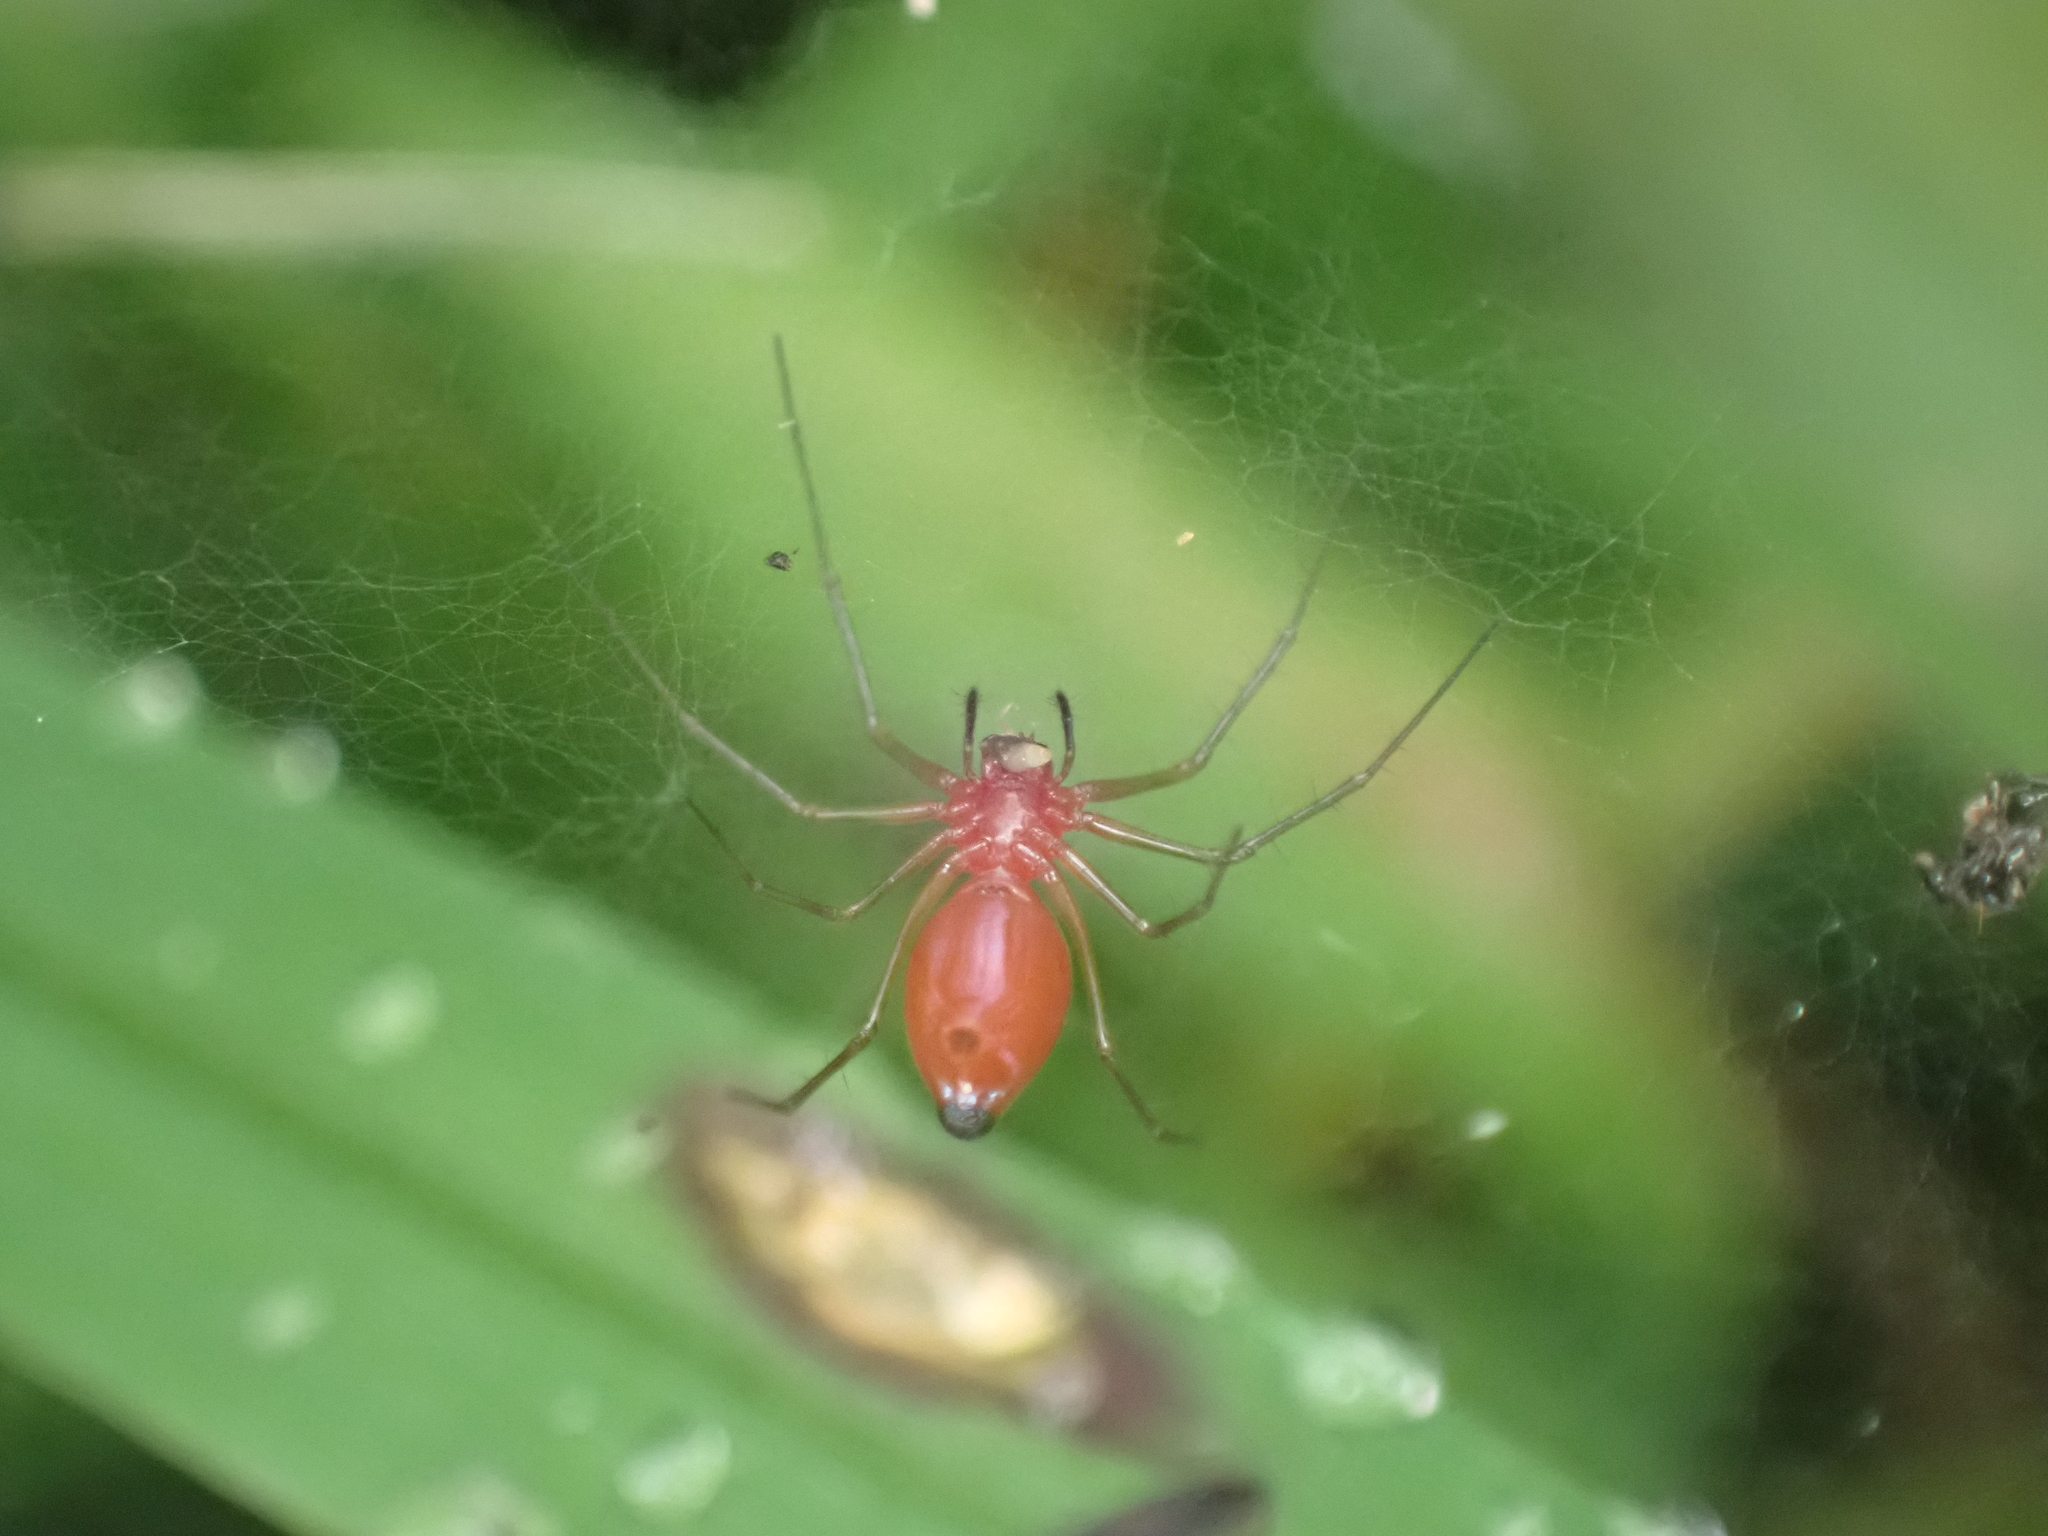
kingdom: Animalia
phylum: Arthropoda
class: Arachnida
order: Araneae
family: Linyphiidae
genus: Florinda
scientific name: Florinda coccinea
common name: Black-tailed red sheetweaver
